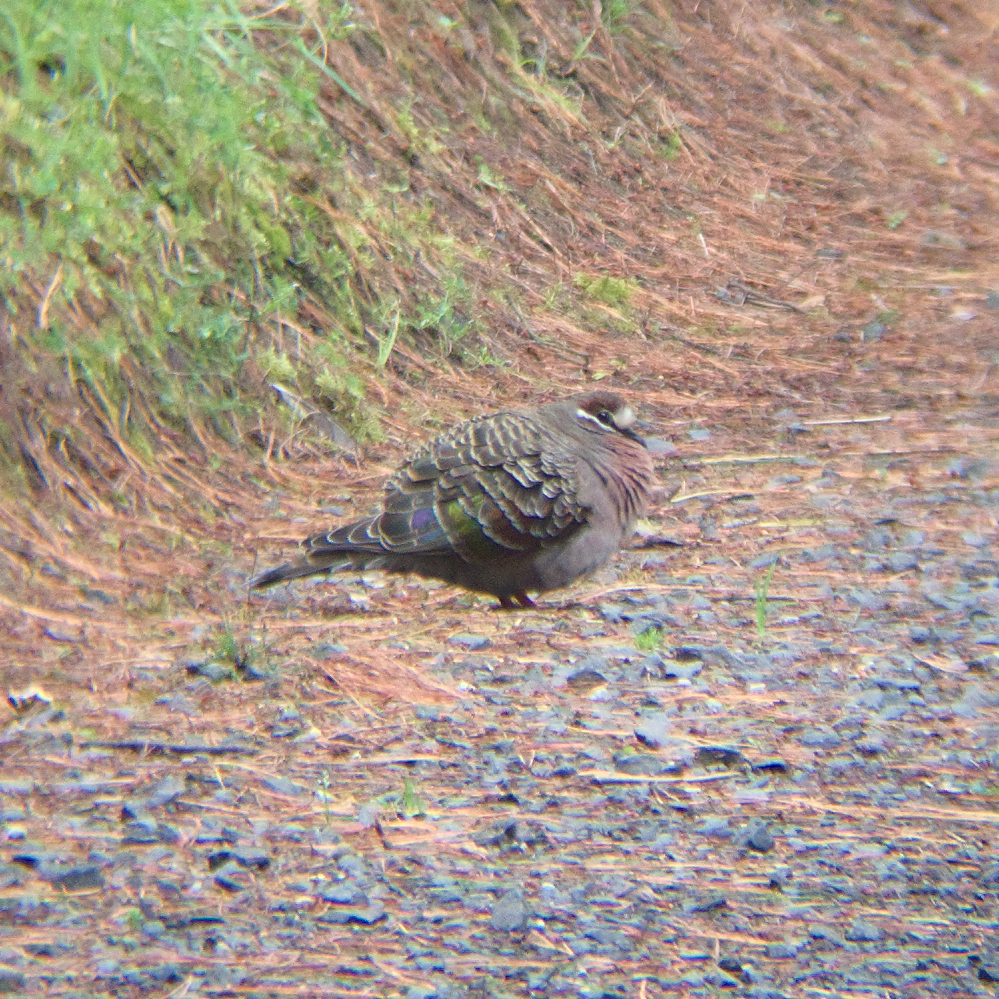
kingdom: Animalia
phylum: Chordata
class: Aves
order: Columbiformes
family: Columbidae
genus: Phaps
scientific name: Phaps chalcoptera
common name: Common bronzewing
